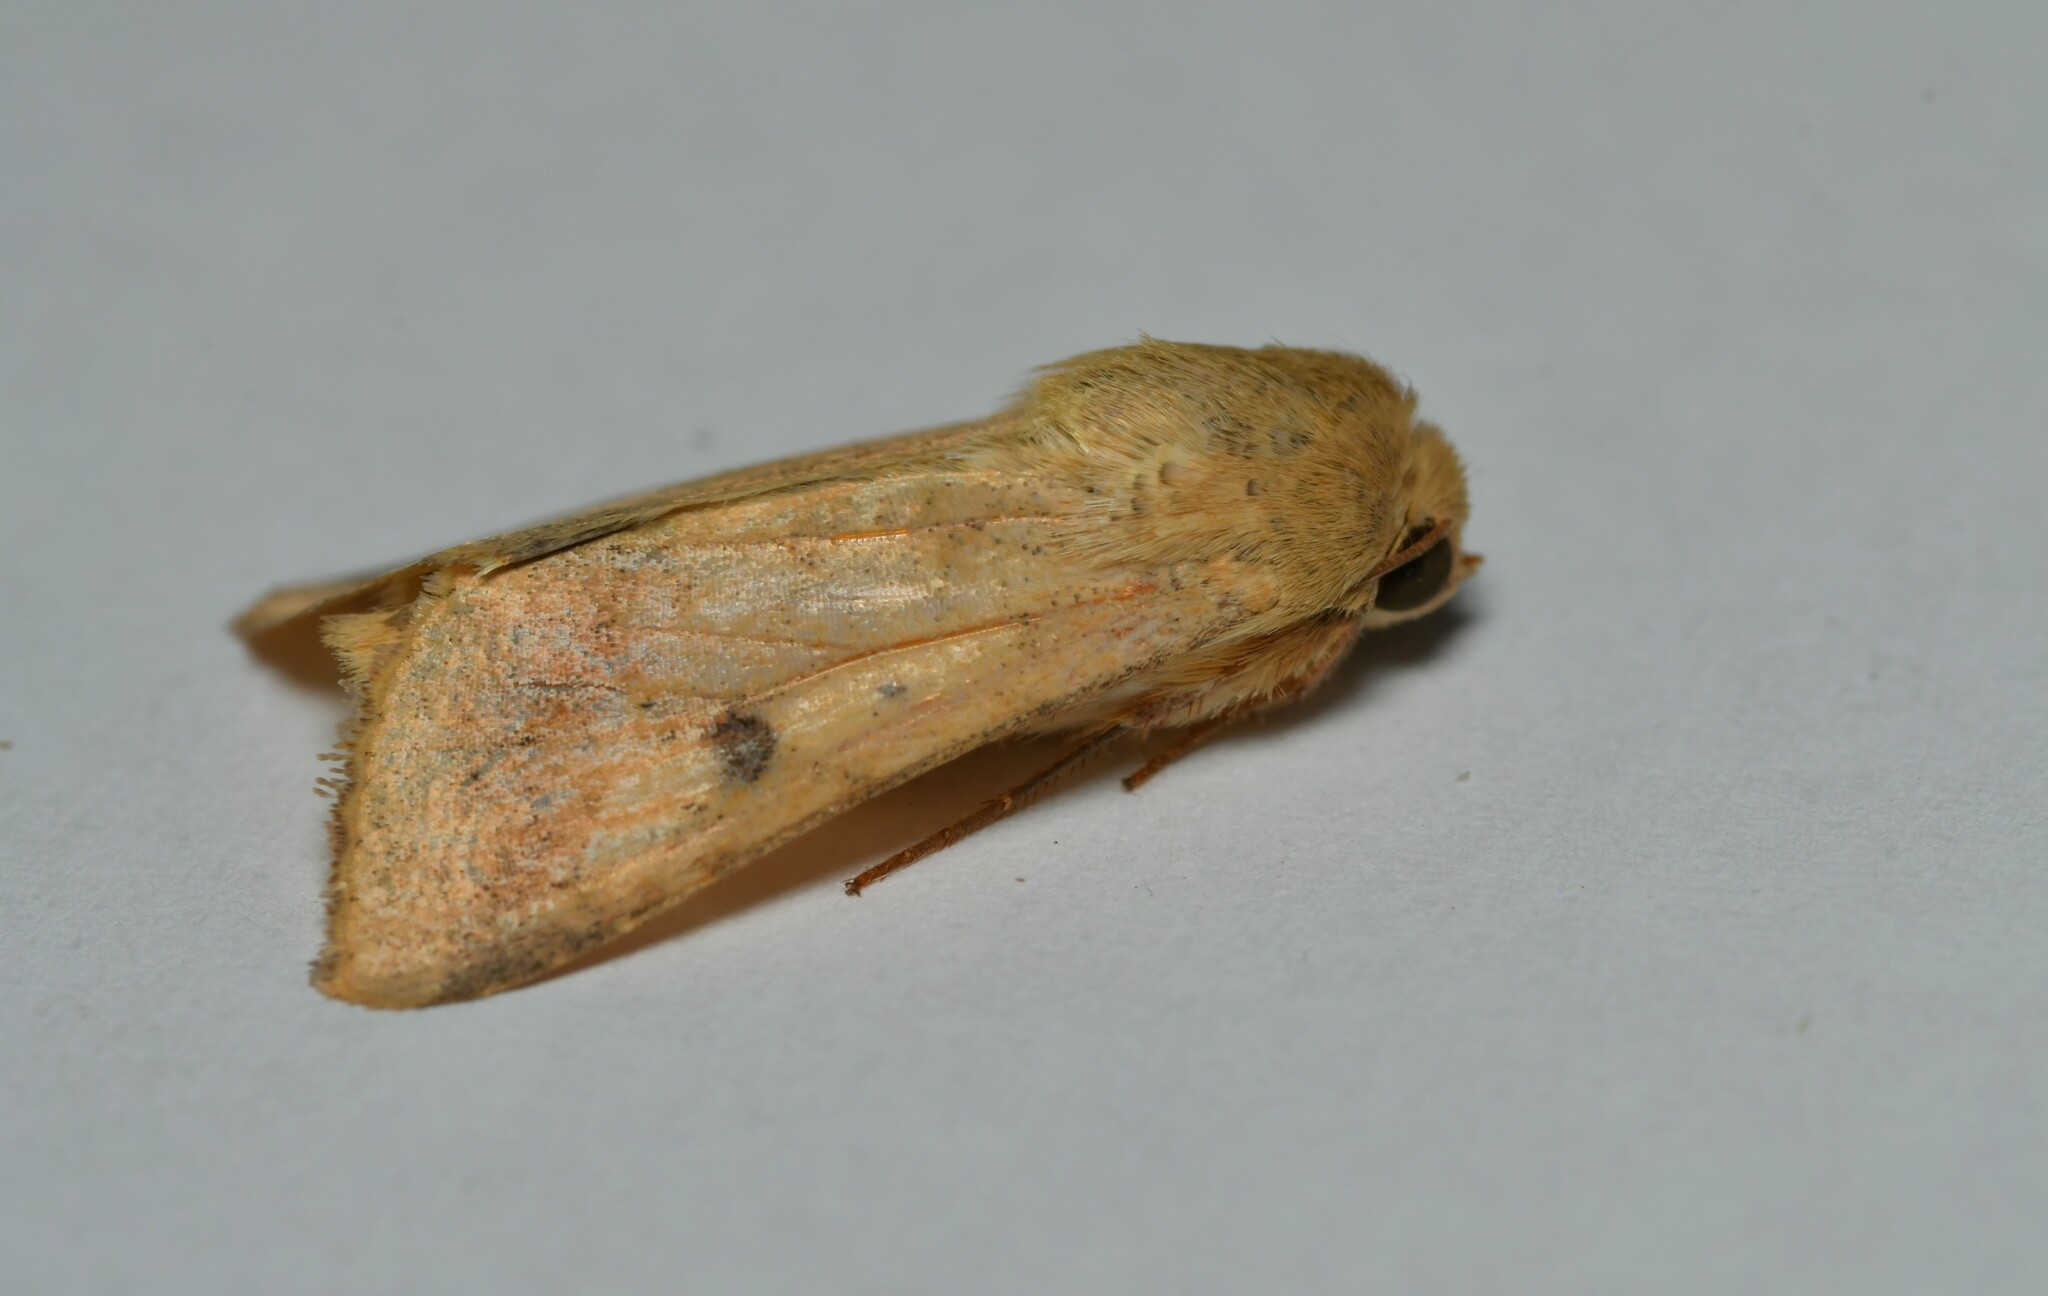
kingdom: Animalia
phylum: Arthropoda
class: Insecta
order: Lepidoptera
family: Noctuidae
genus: Helicoverpa
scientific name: Helicoverpa armigera
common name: Cotton bollworm
